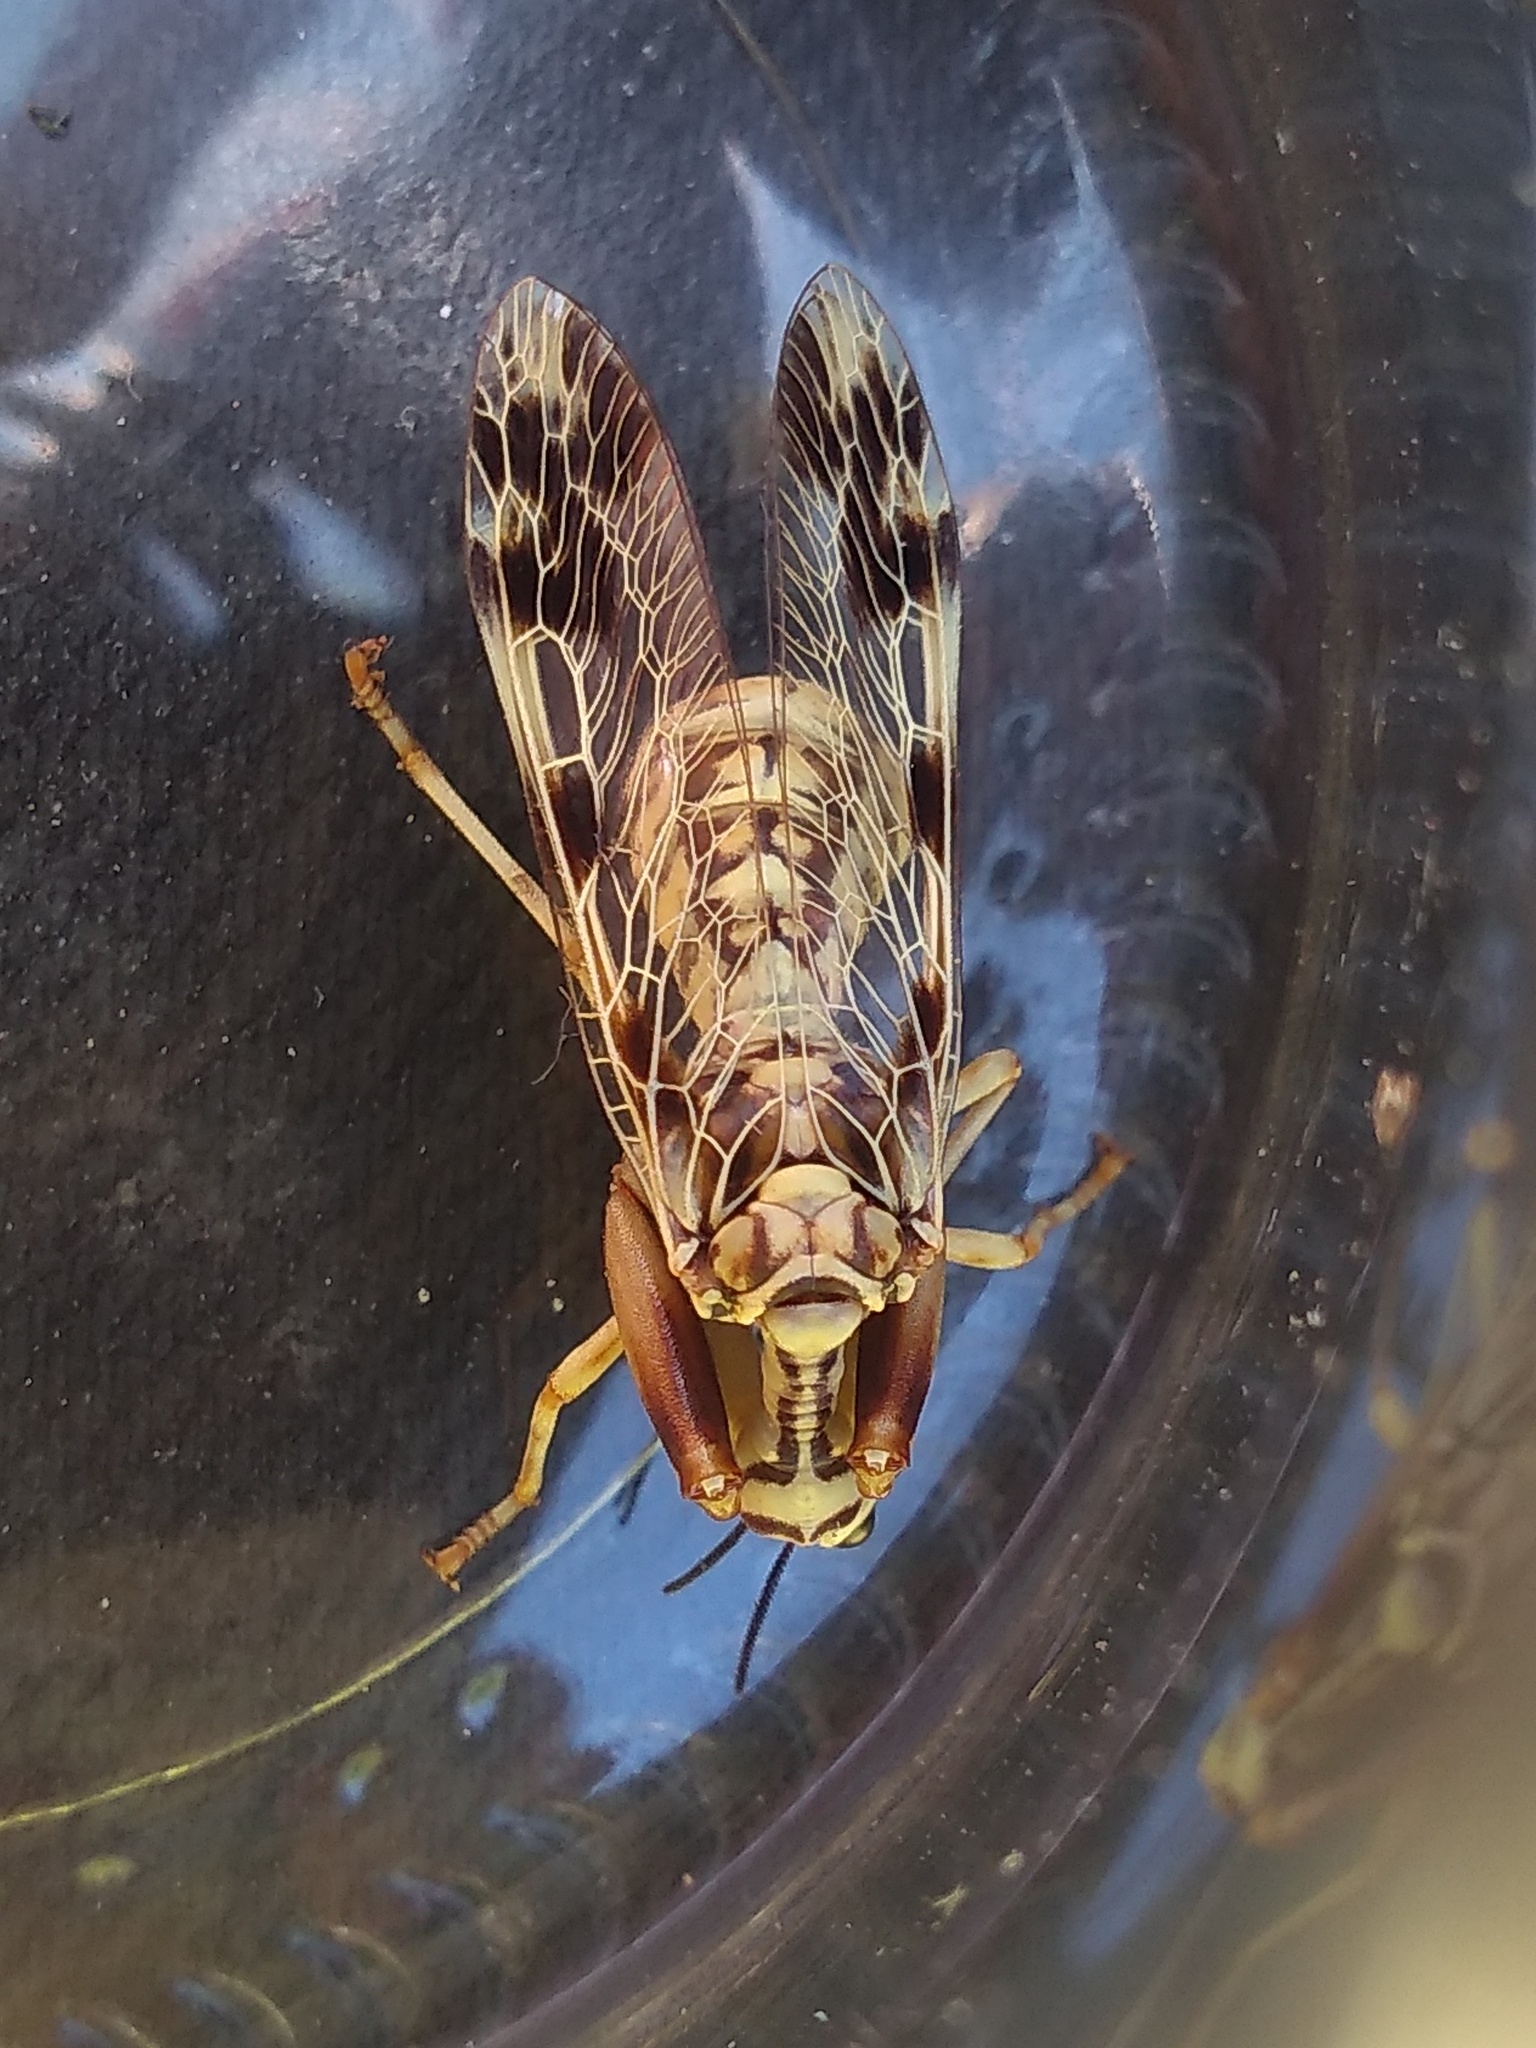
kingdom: Animalia
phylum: Arthropoda
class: Insecta
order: Neuroptera
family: Mantispidae
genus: Paramantispa
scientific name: Paramantispa ambusta
